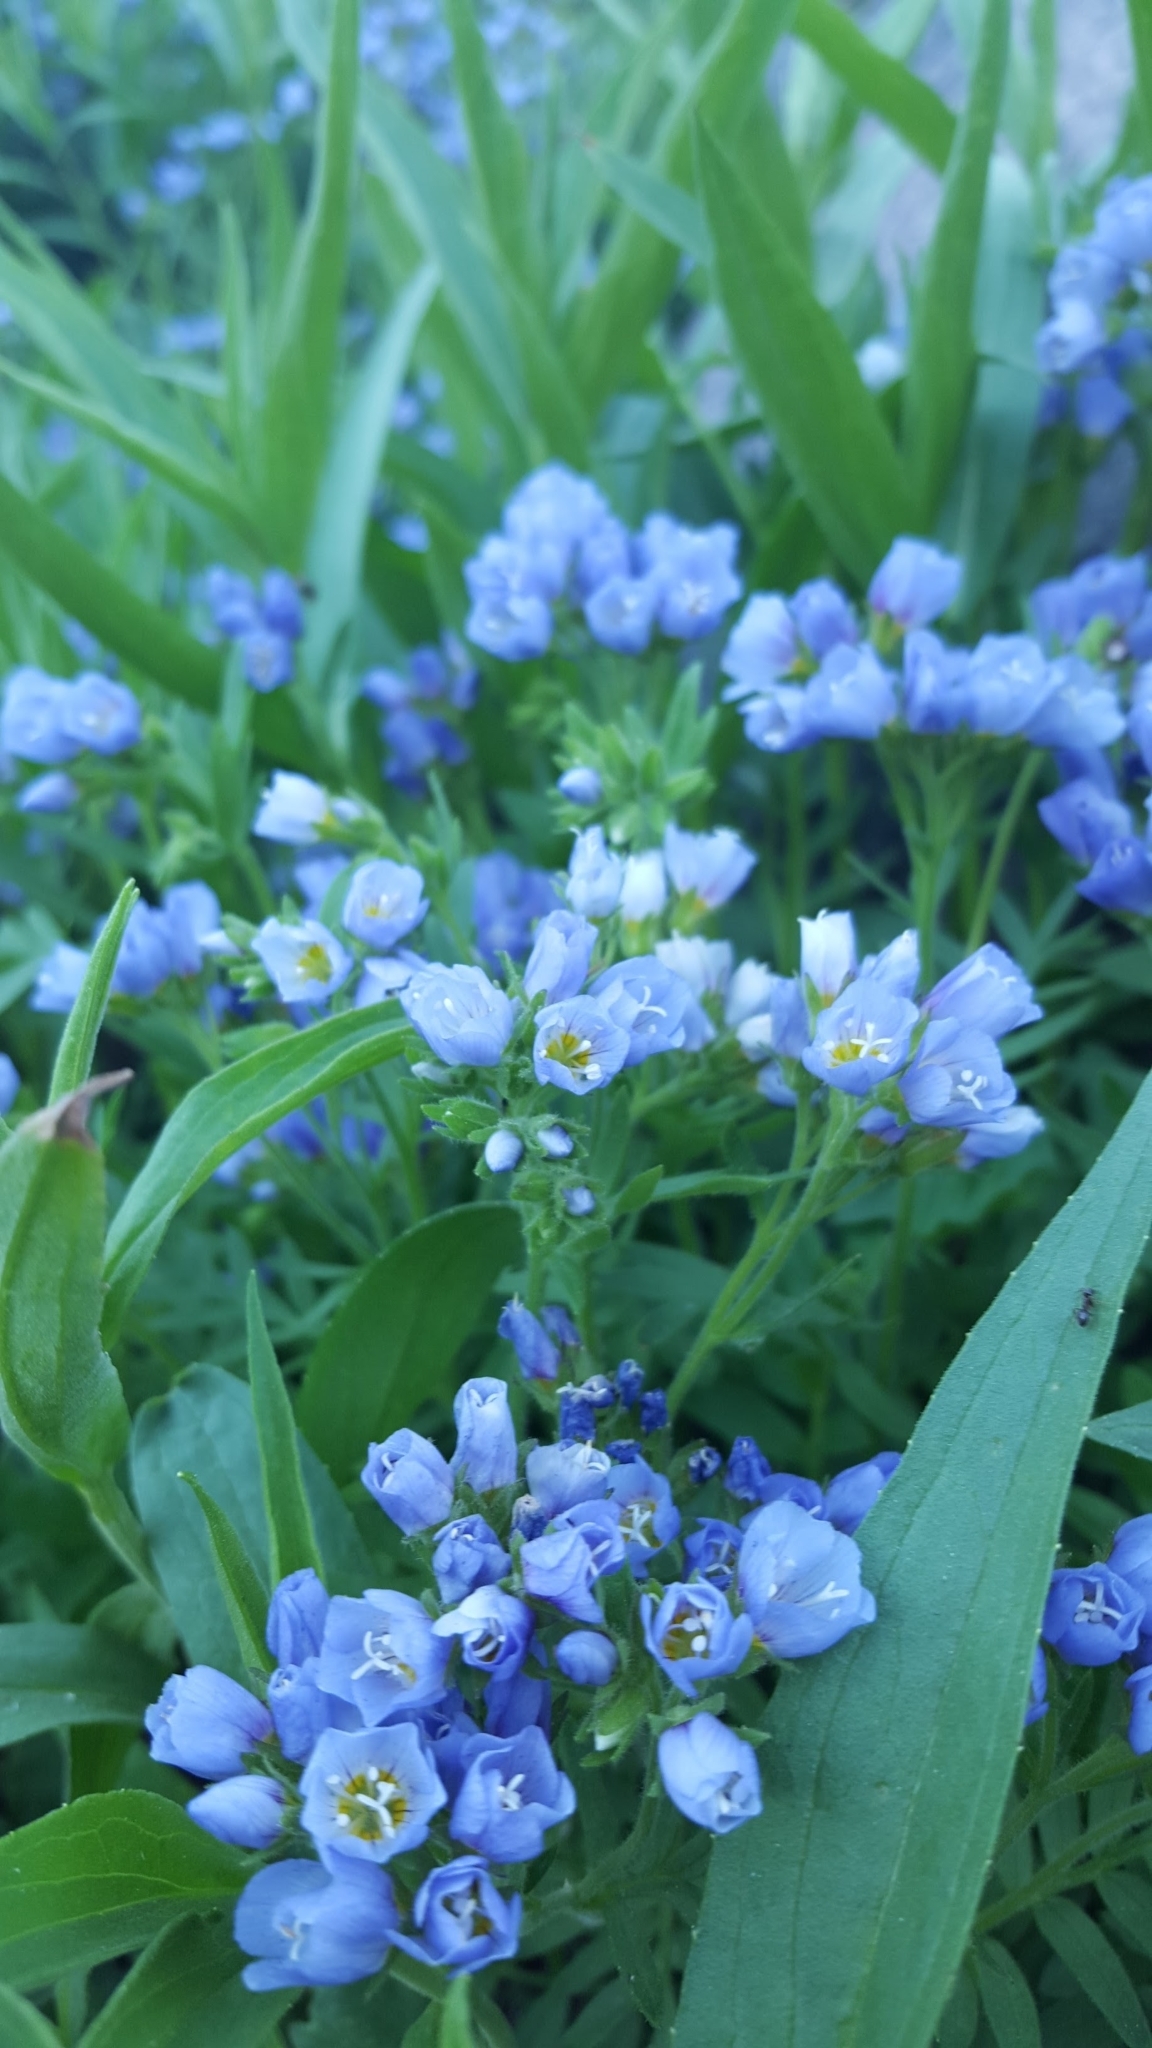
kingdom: Plantae
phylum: Tracheophyta
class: Magnoliopsida
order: Ericales
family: Polemoniaceae
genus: Polemonium
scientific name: Polemonium californicum
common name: California jacob's ladder
